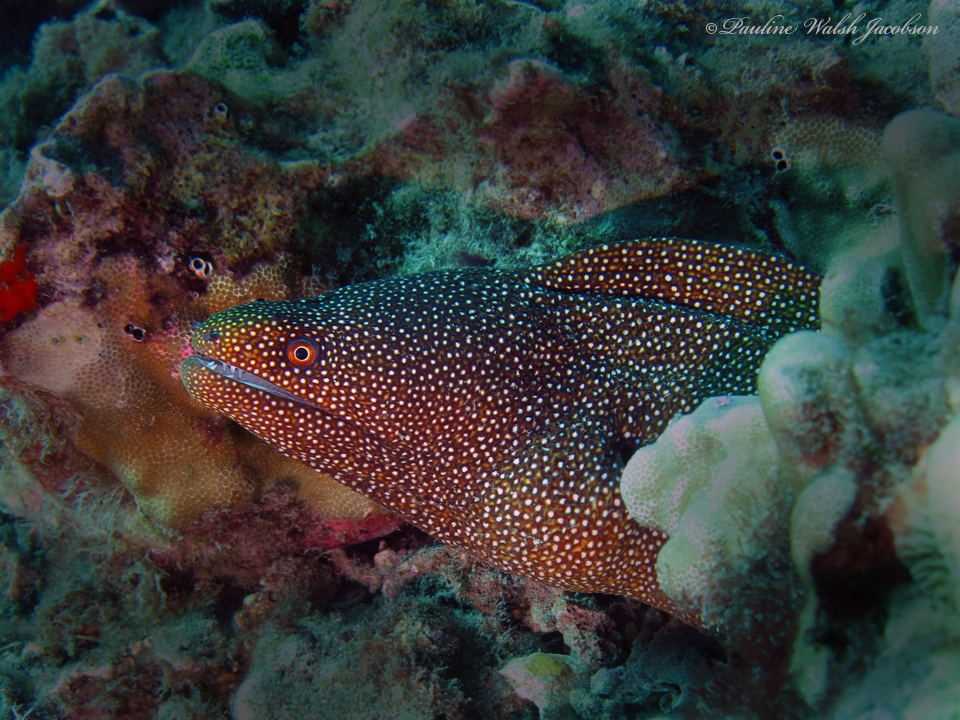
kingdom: Animalia
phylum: Chordata
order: Anguilliformes
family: Muraenidae
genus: Gymnothorax
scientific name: Gymnothorax meleagris
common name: Guineafowl moray
